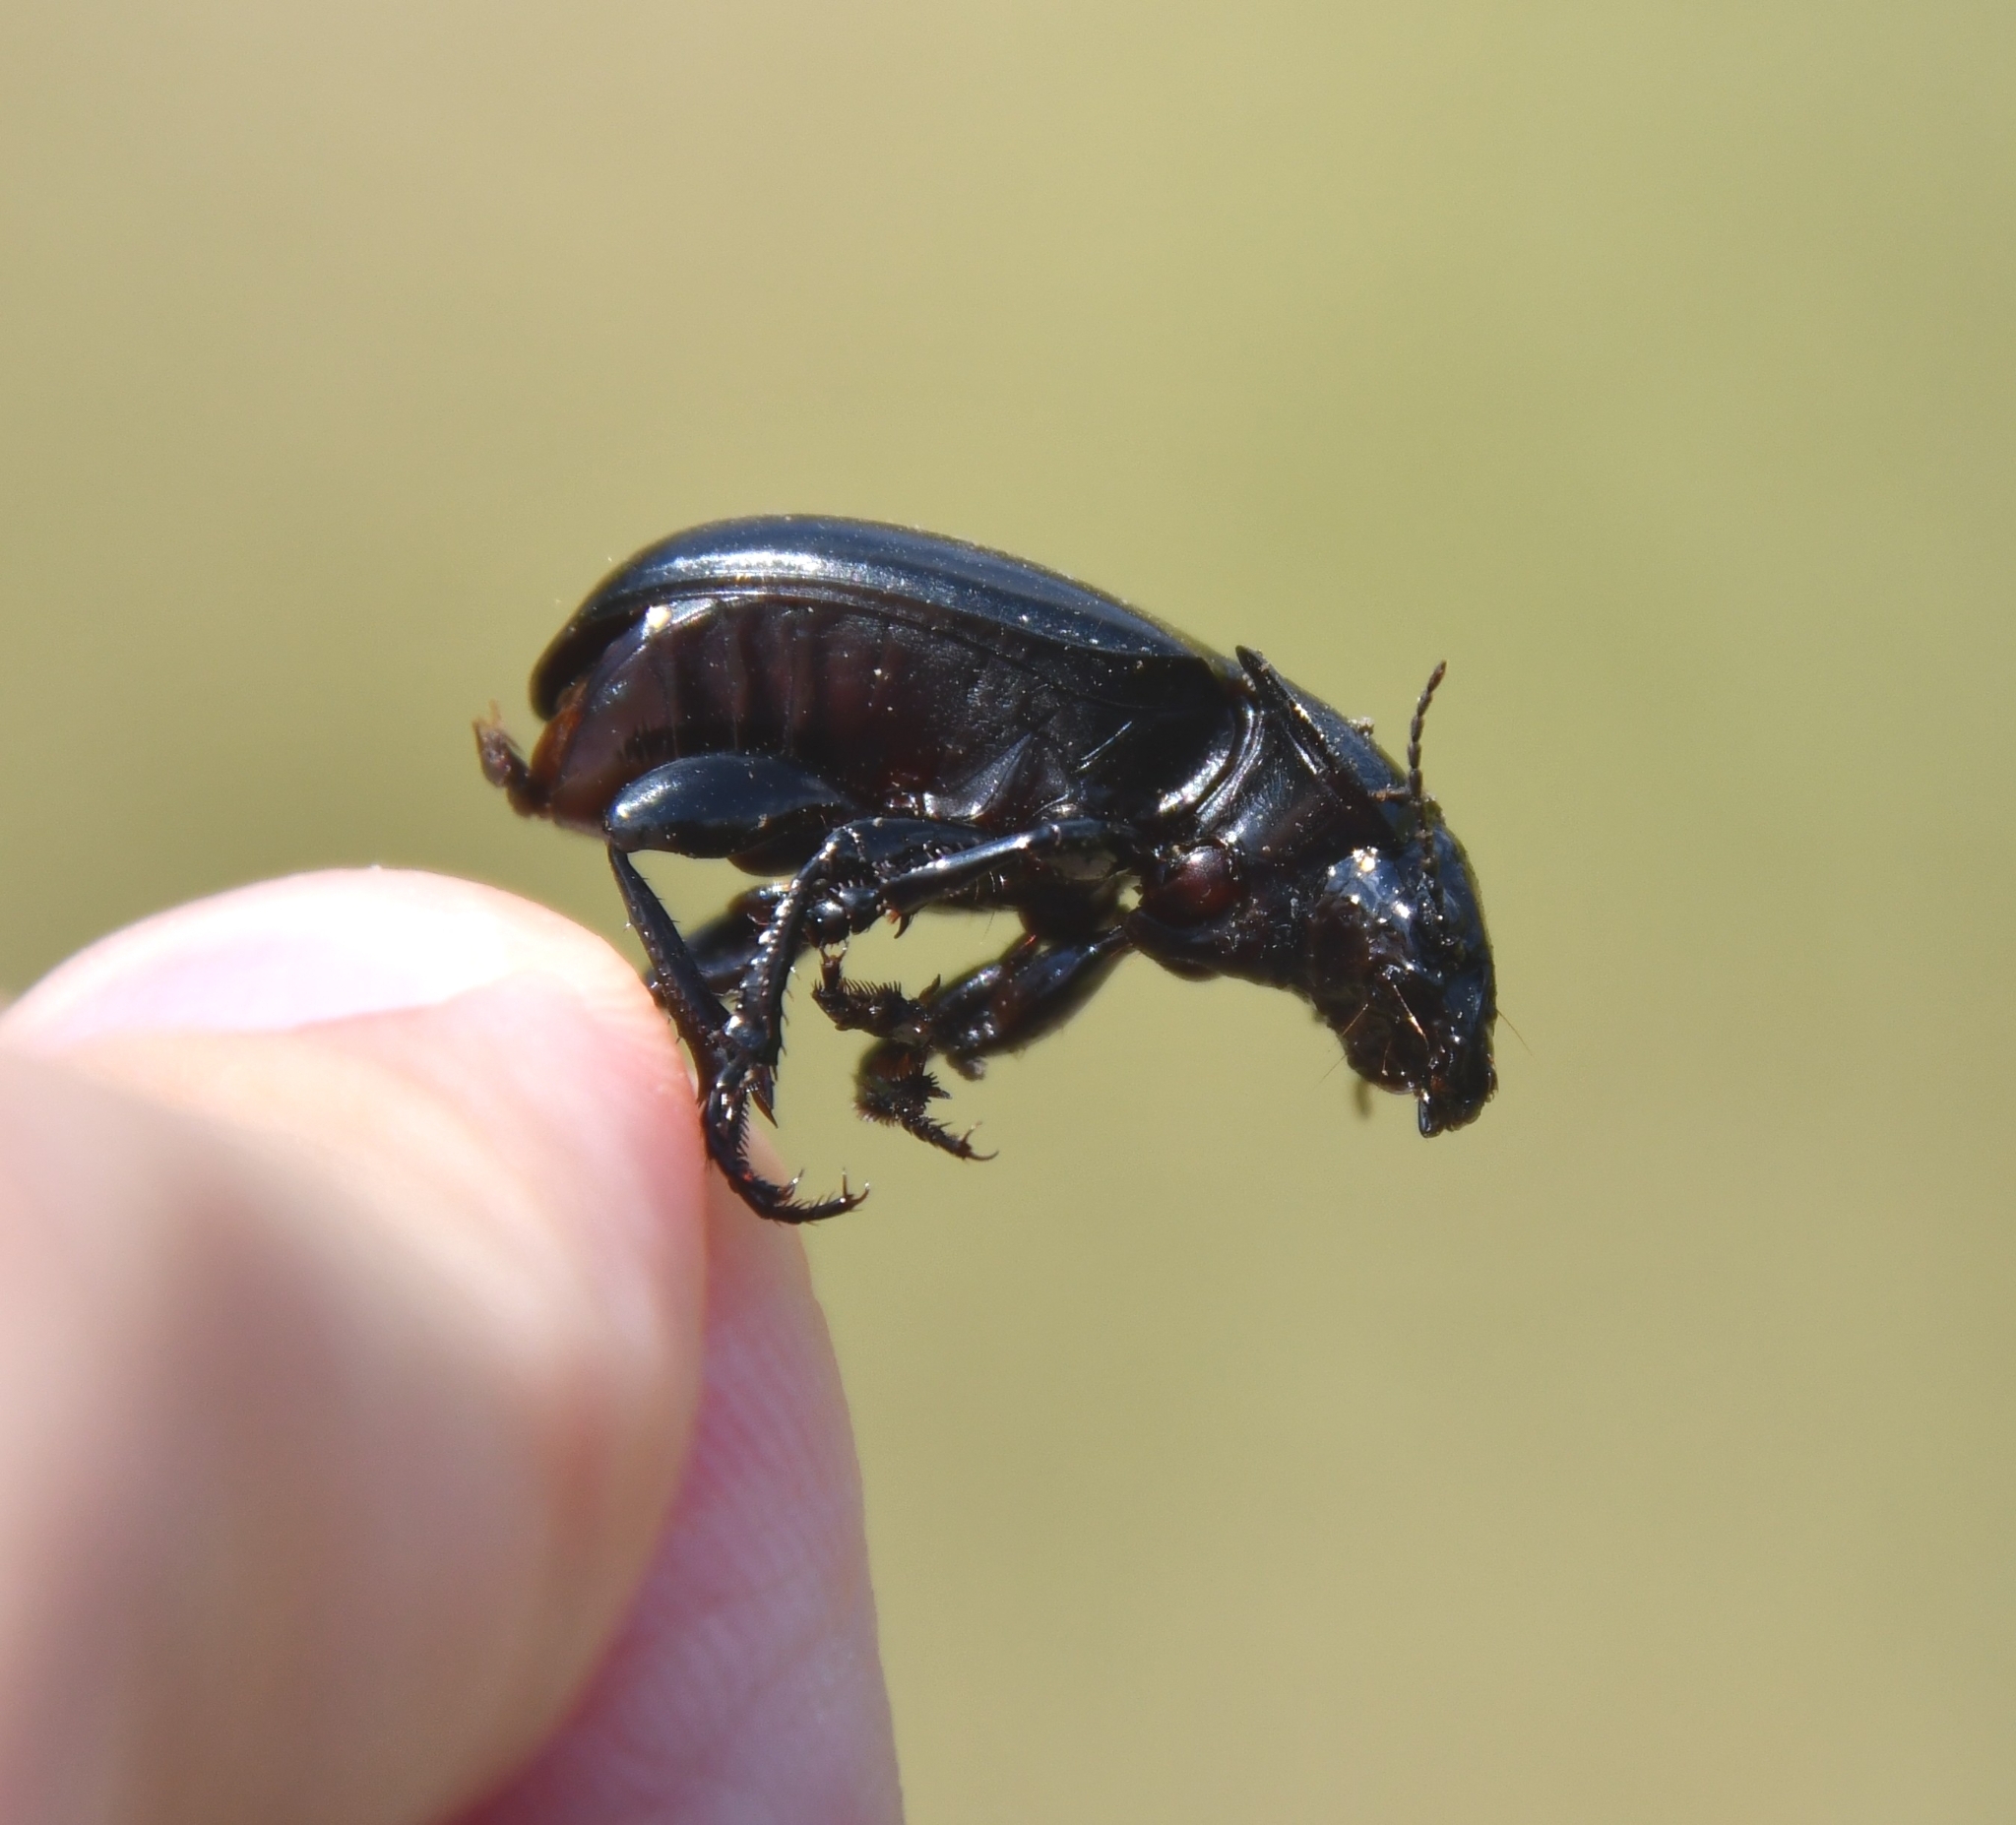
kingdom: Animalia
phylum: Arthropoda
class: Insecta
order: Coleoptera
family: Carabidae
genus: Zabrus
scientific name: Zabrus spinipes
